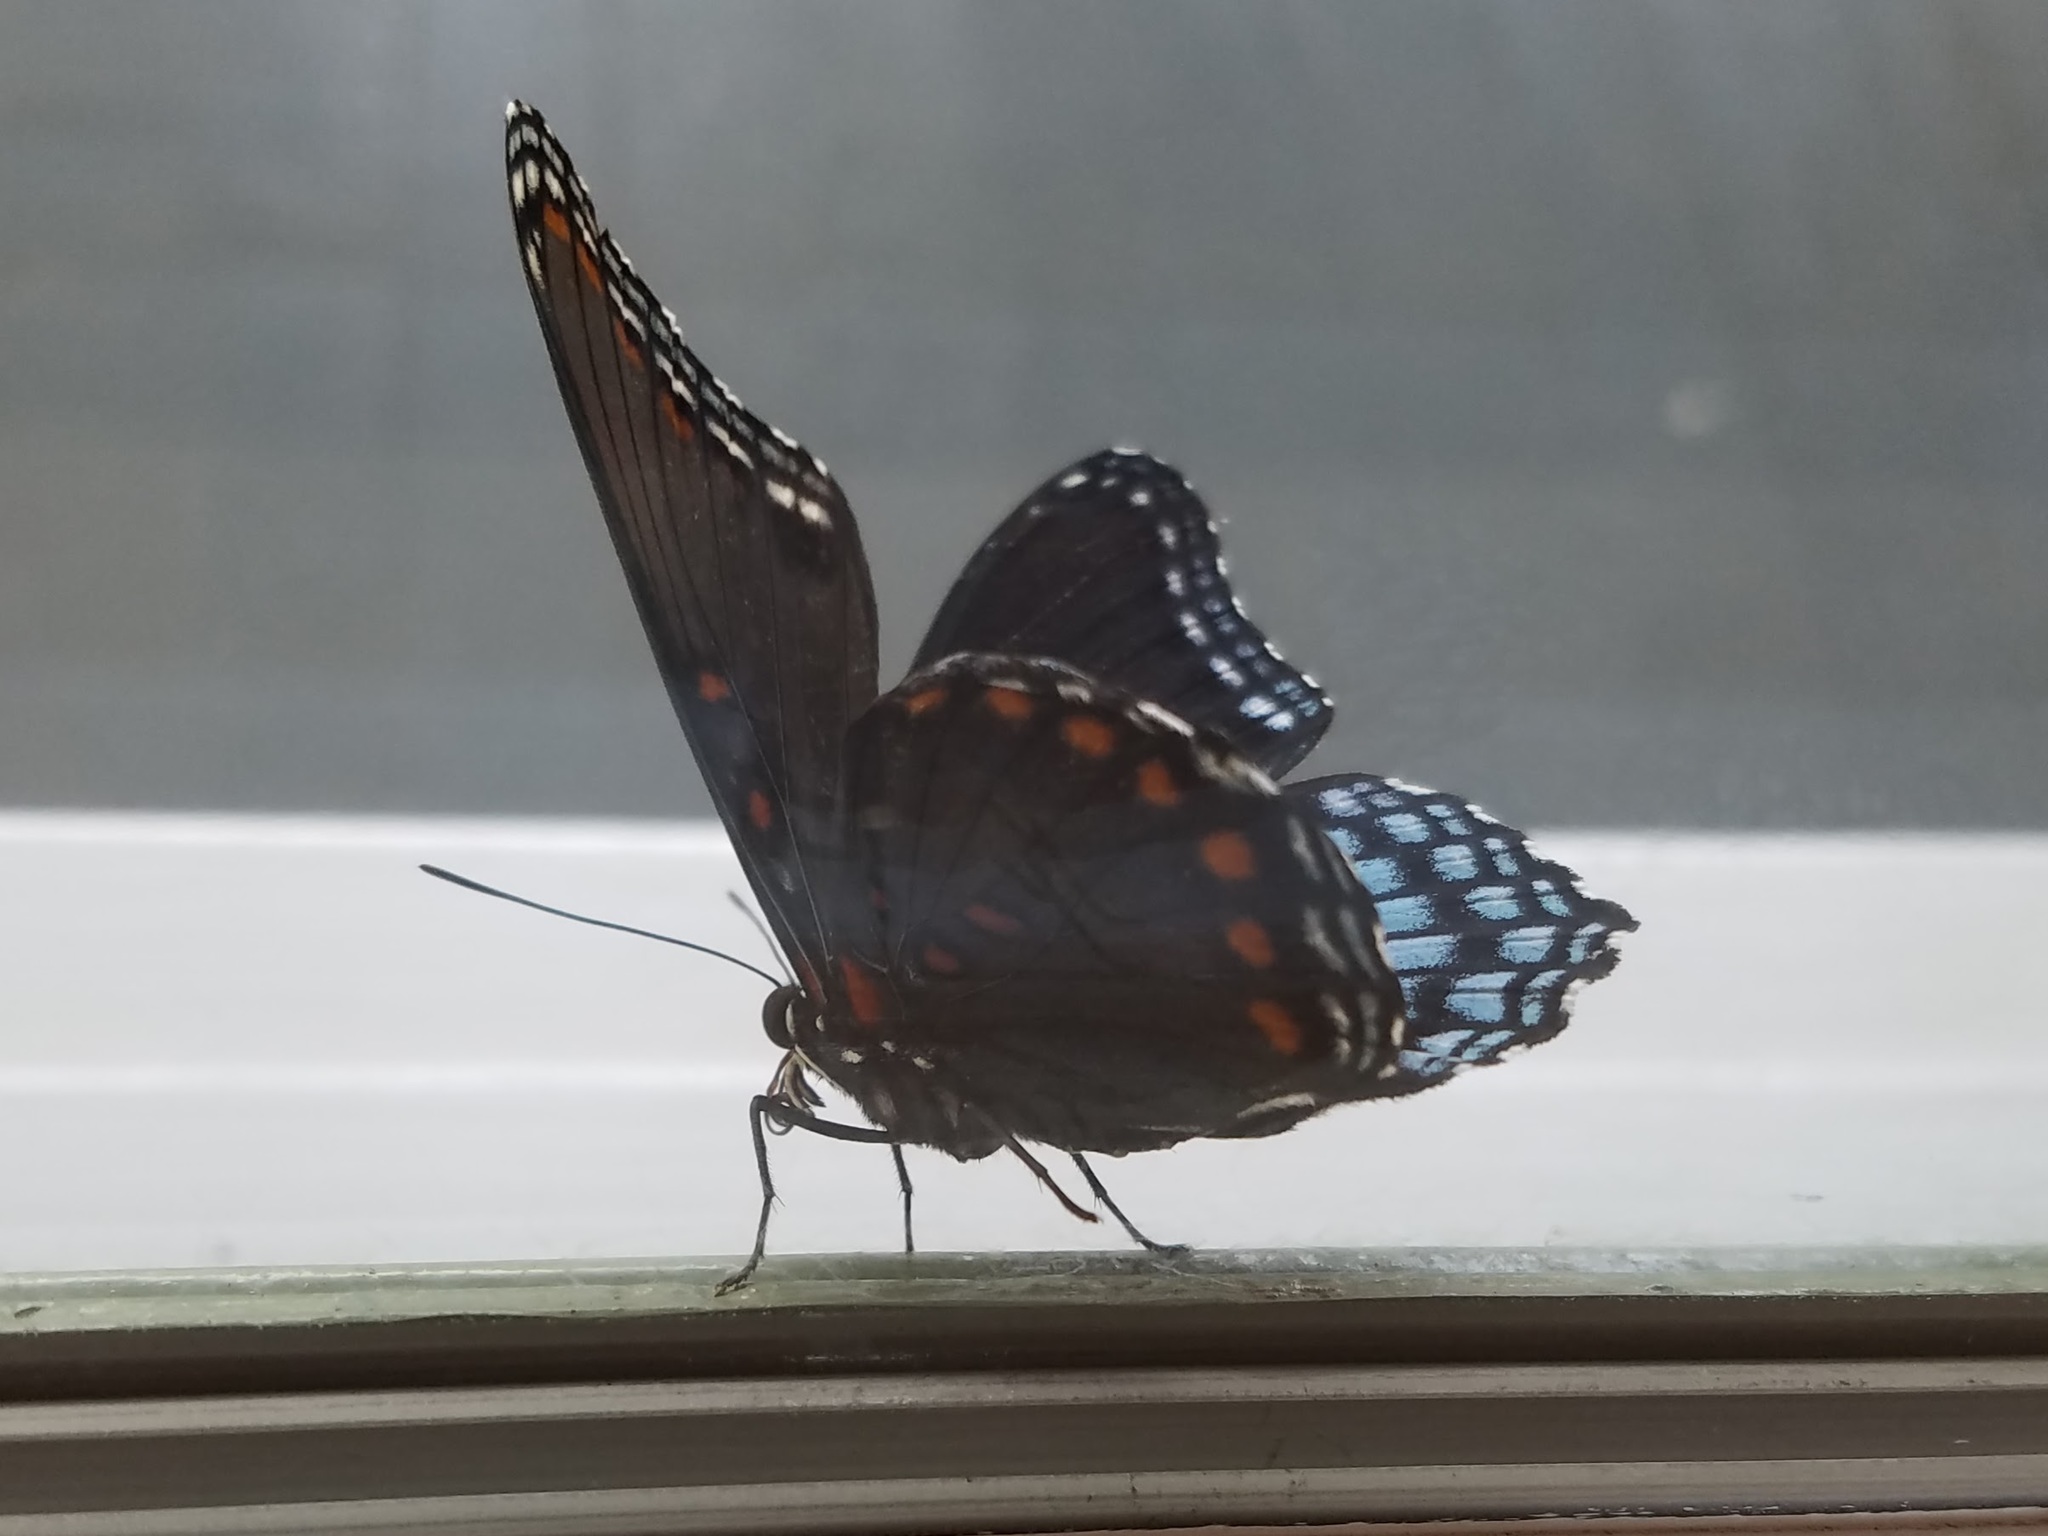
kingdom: Animalia
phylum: Arthropoda
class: Insecta
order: Lepidoptera
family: Nymphalidae
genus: Limenitis
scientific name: Limenitis arthemis
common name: Red-spotted admiral
